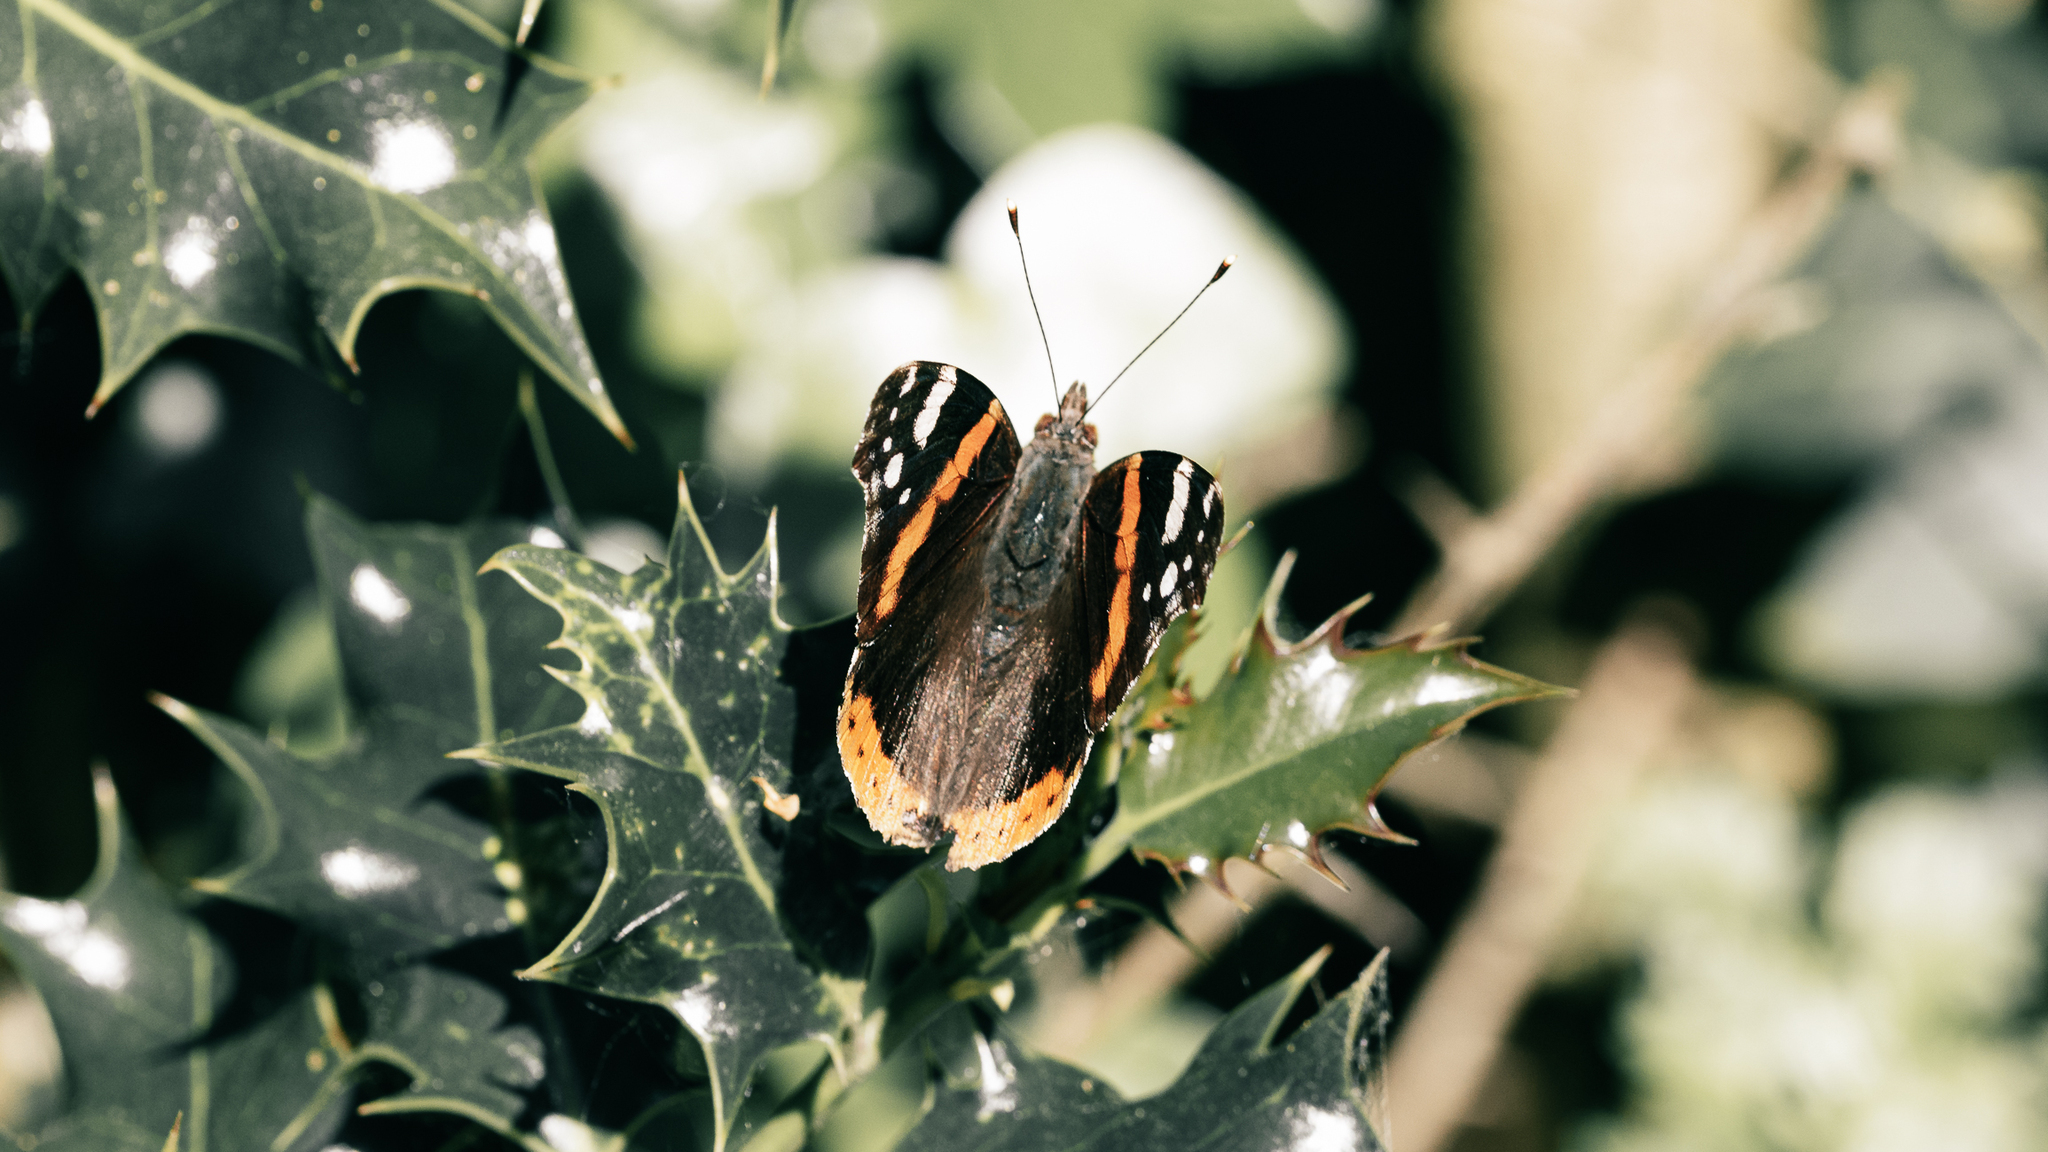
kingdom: Animalia
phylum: Arthropoda
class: Insecta
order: Lepidoptera
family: Nymphalidae
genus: Vanessa
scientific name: Vanessa atalanta
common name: Red admiral
